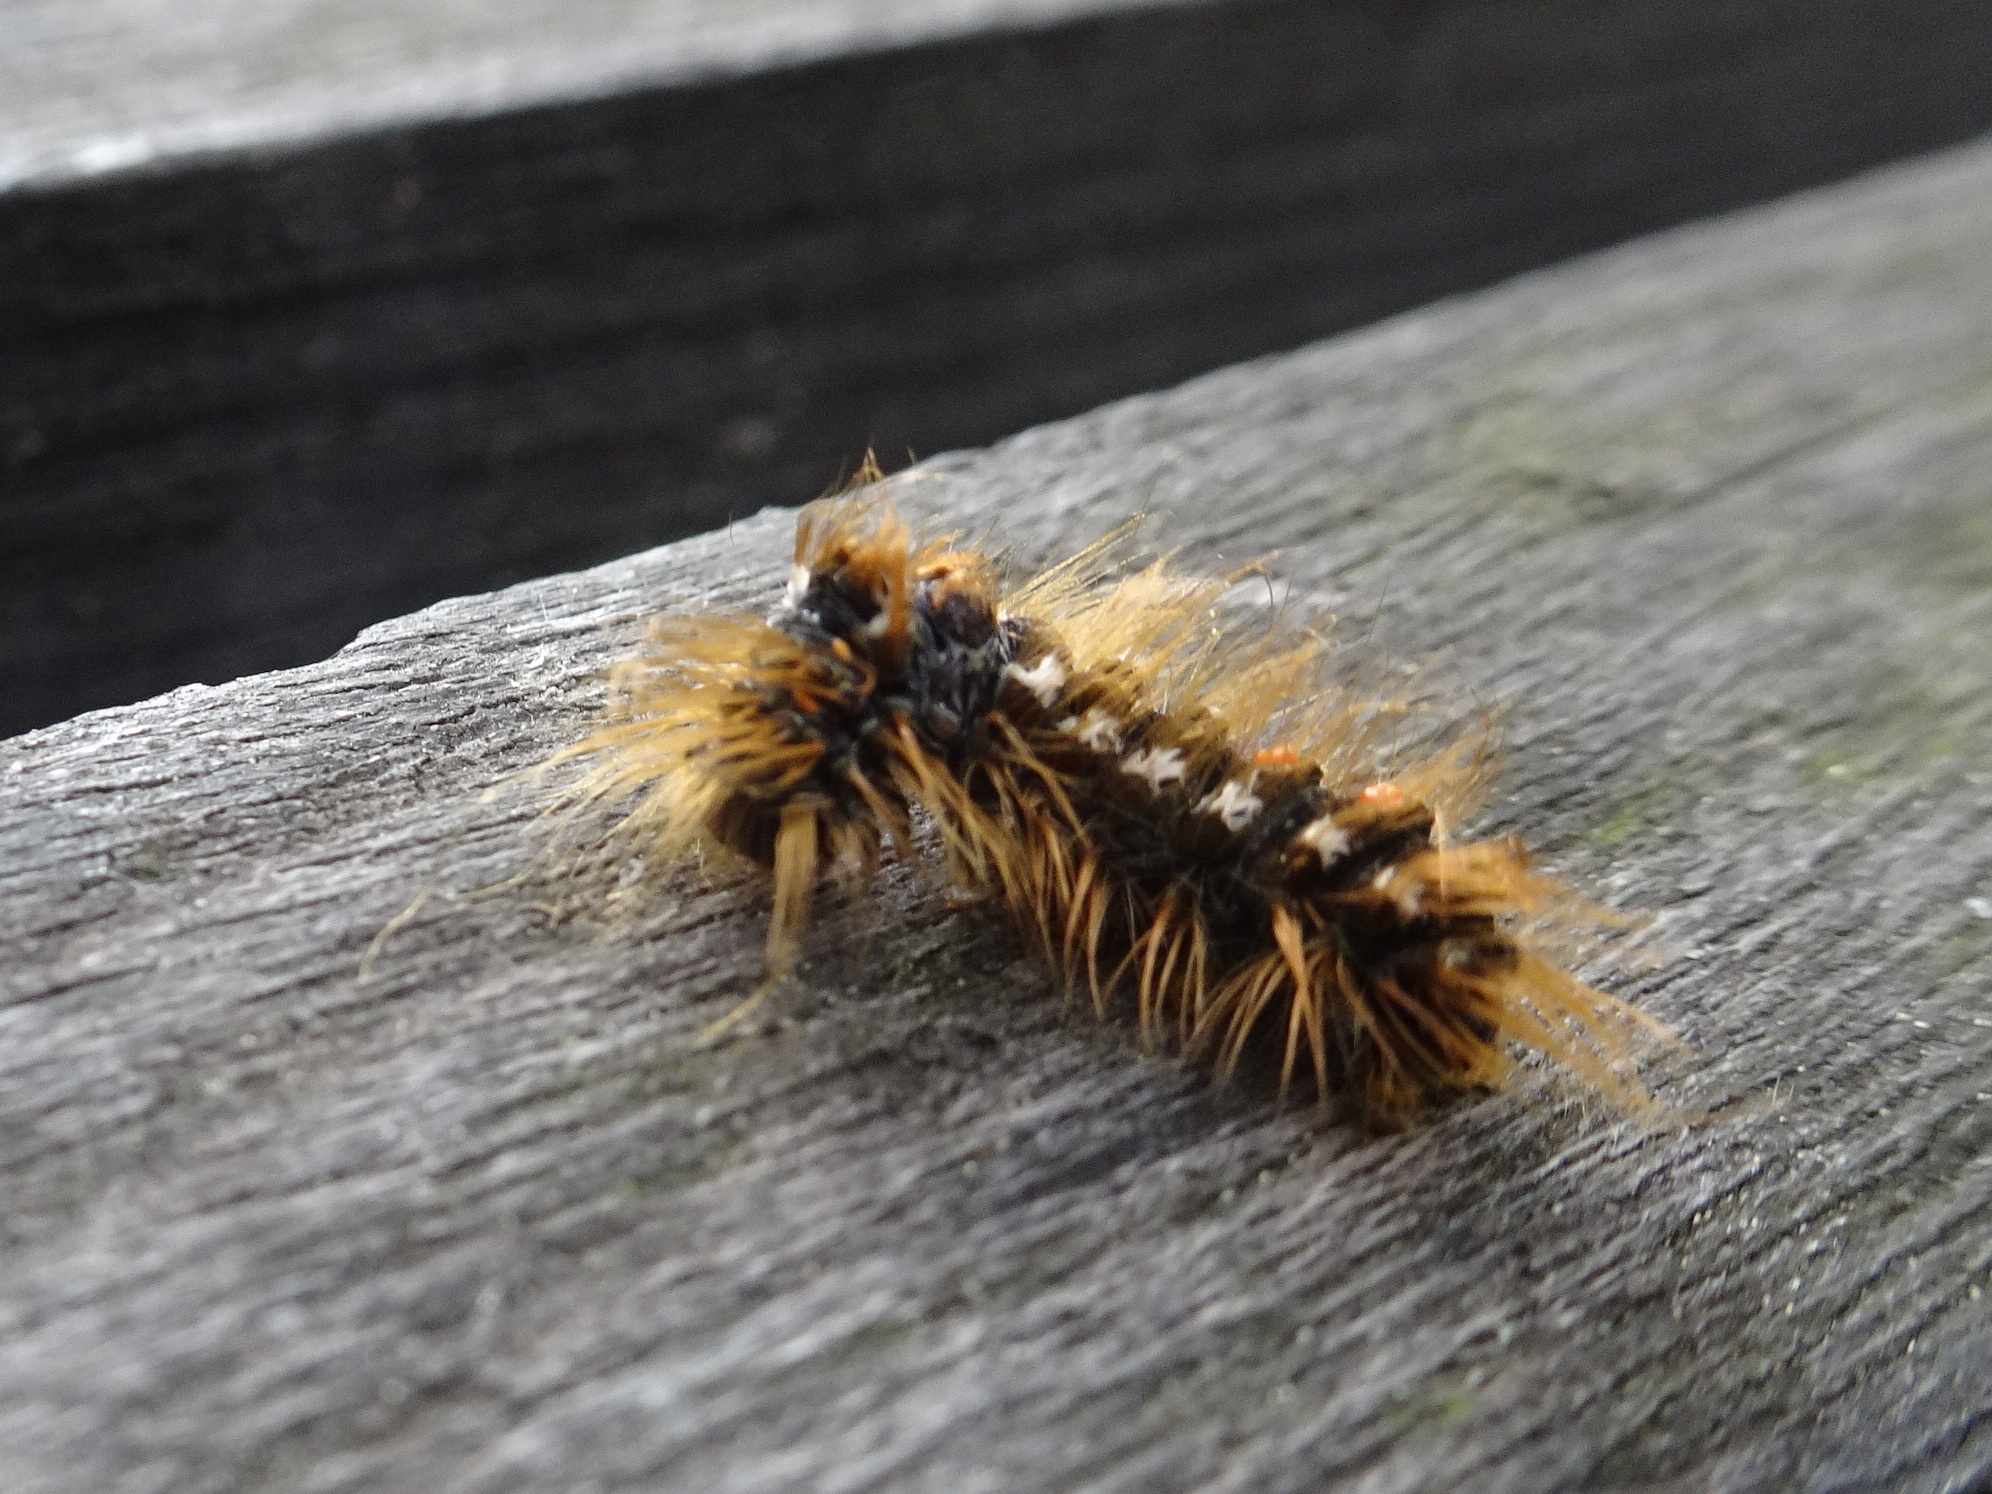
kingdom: Animalia
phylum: Arthropoda
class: Insecta
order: Lepidoptera
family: Erebidae
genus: Euproctis
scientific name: Euproctis chrysorrhoea
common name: Brown-tail
